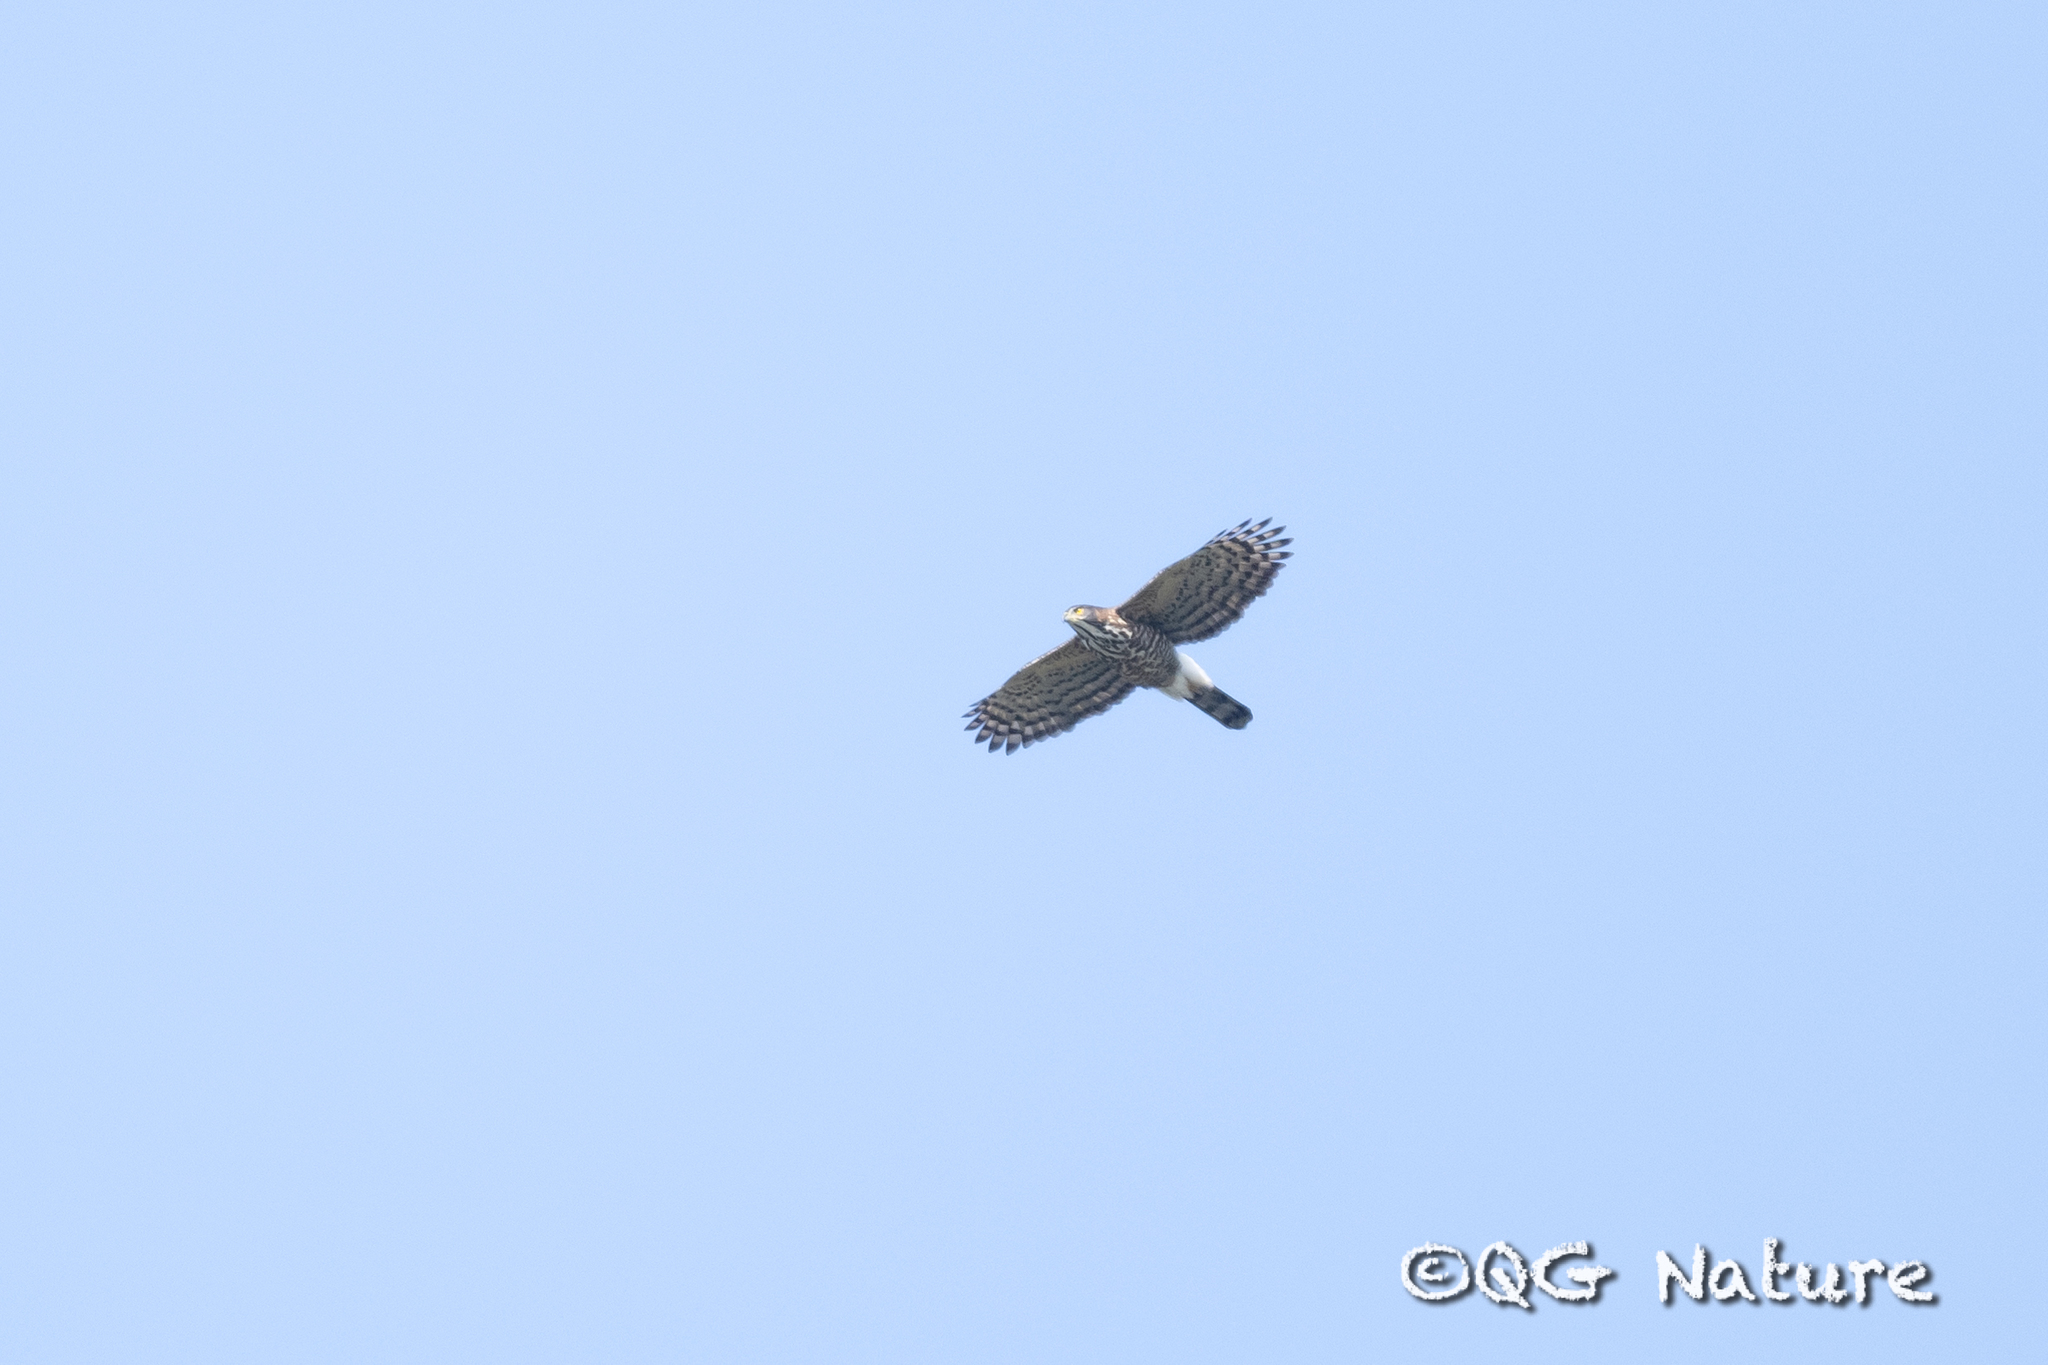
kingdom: Animalia
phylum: Chordata
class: Aves
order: Accipitriformes
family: Accipitridae
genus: Accipiter
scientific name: Accipiter trivirgatus
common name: Crested goshawk
